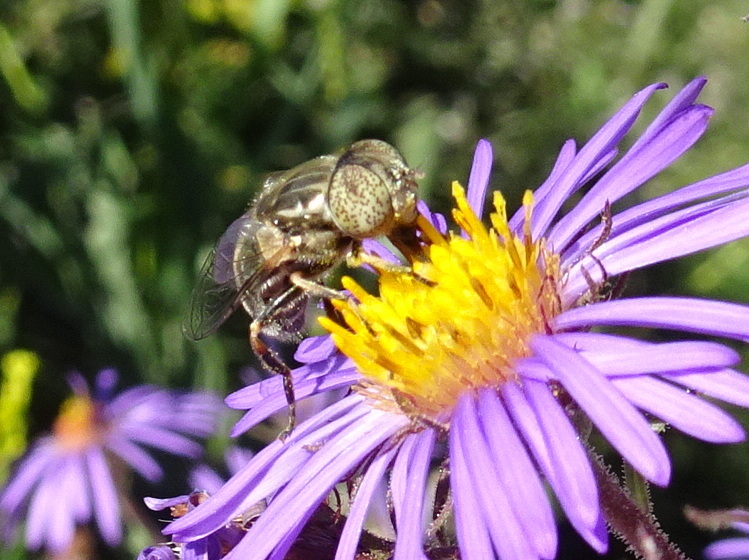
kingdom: Animalia
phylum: Arthropoda
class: Insecta
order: Diptera
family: Syrphidae
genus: Eristalinus
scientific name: Eristalinus aeneus
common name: Syrphid fly
